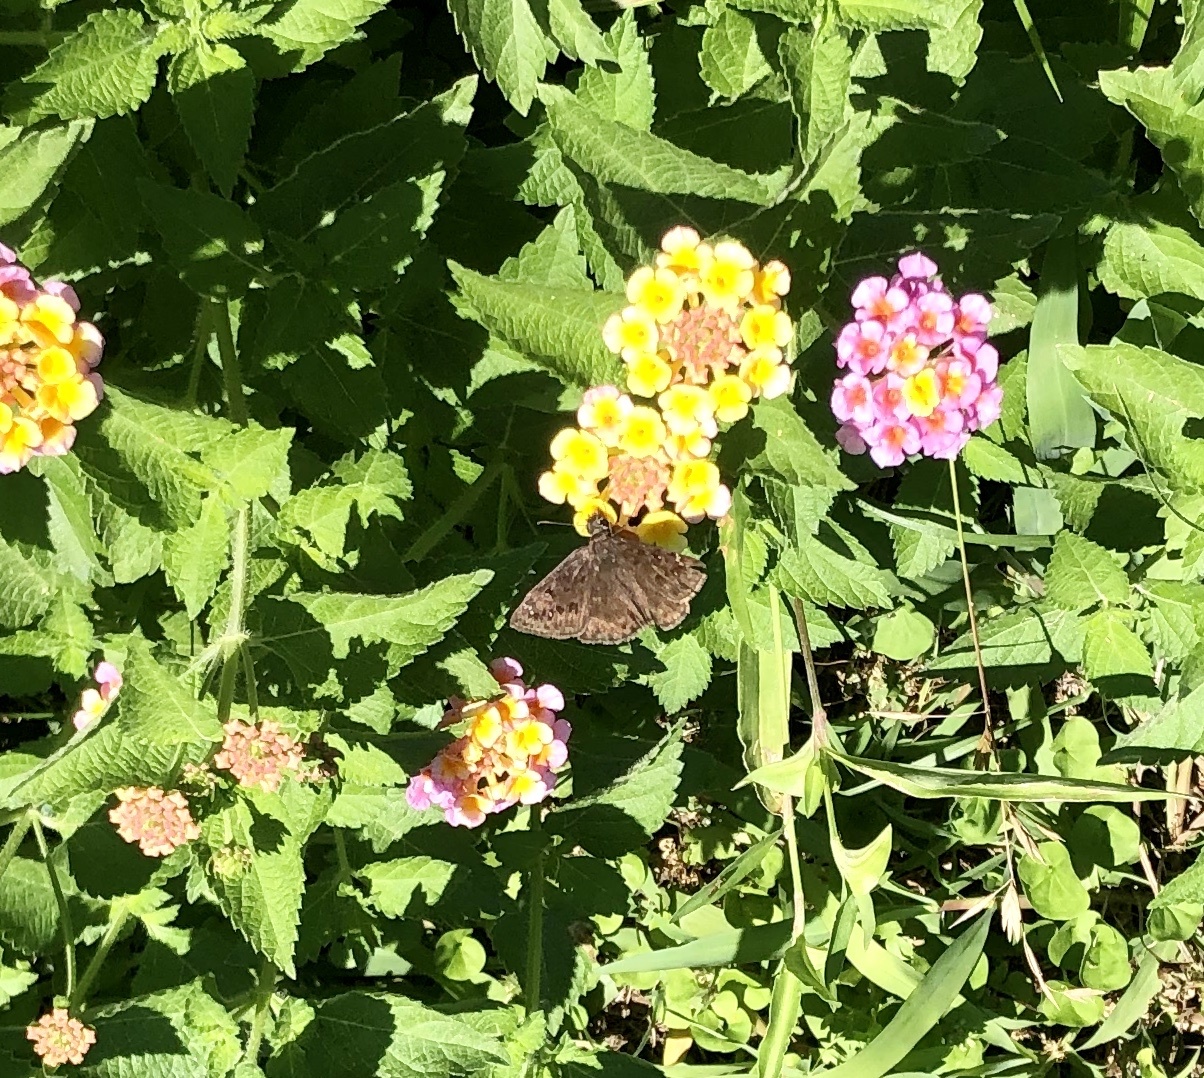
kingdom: Animalia
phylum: Arthropoda
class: Insecta
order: Lepidoptera
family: Hesperiidae
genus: Erynnis
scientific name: Erynnis horatius
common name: Horace's duskywing
